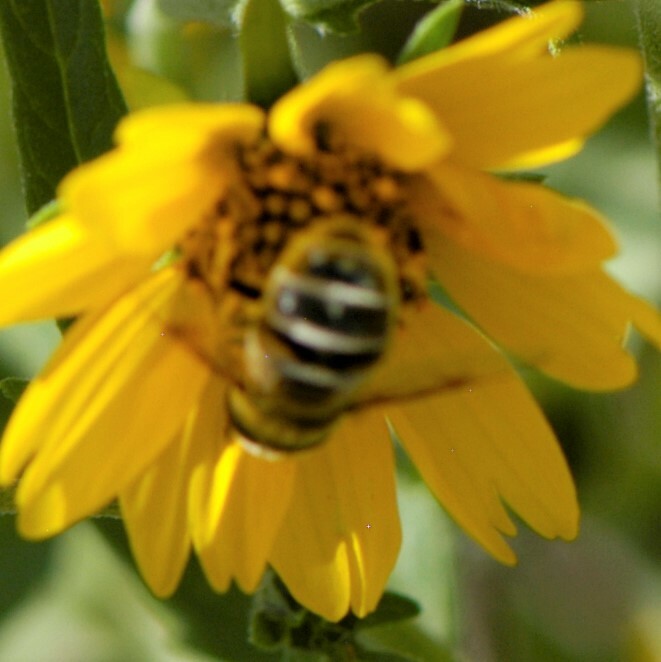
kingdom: Animalia
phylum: Arthropoda
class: Insecta
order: Diptera
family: Syrphidae
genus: Eristalis
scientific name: Eristalis stipator
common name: Yellow-shouldered drone fly
